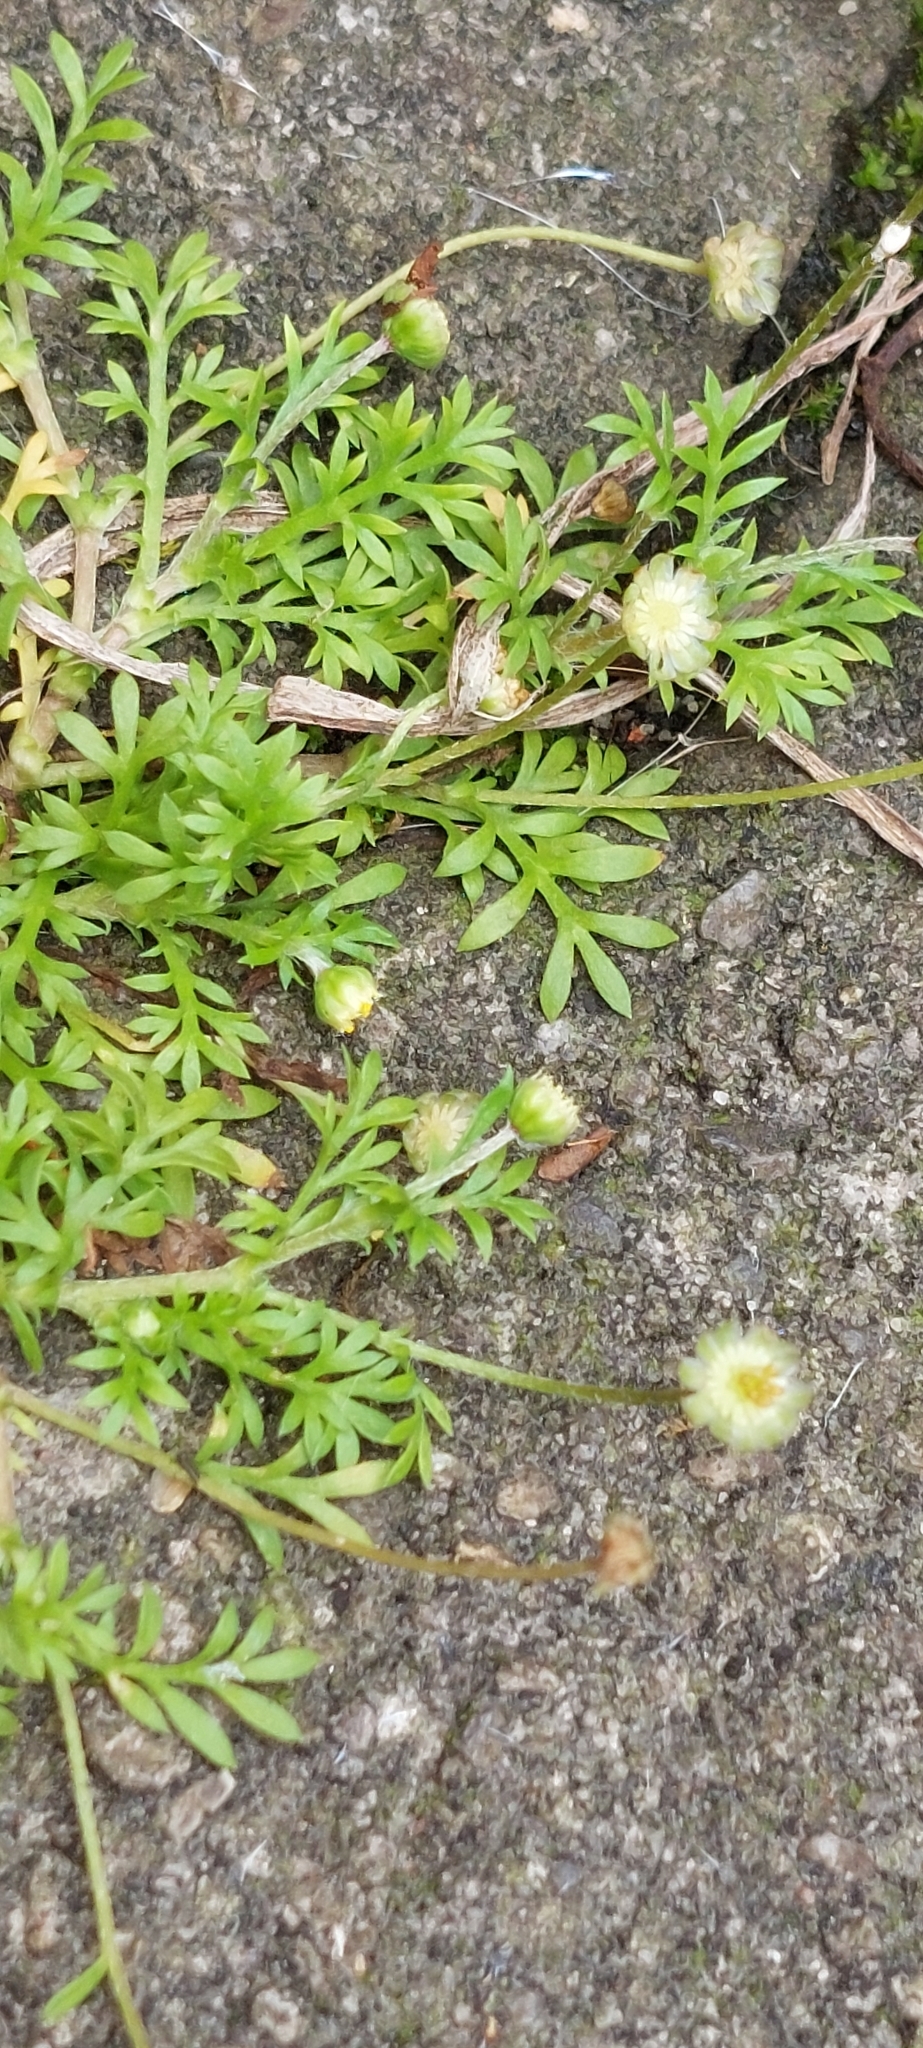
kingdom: Plantae
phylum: Tracheophyta
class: Magnoliopsida
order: Asterales
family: Asteraceae
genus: Cotula
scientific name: Cotula australis
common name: Australian waterbuttons
